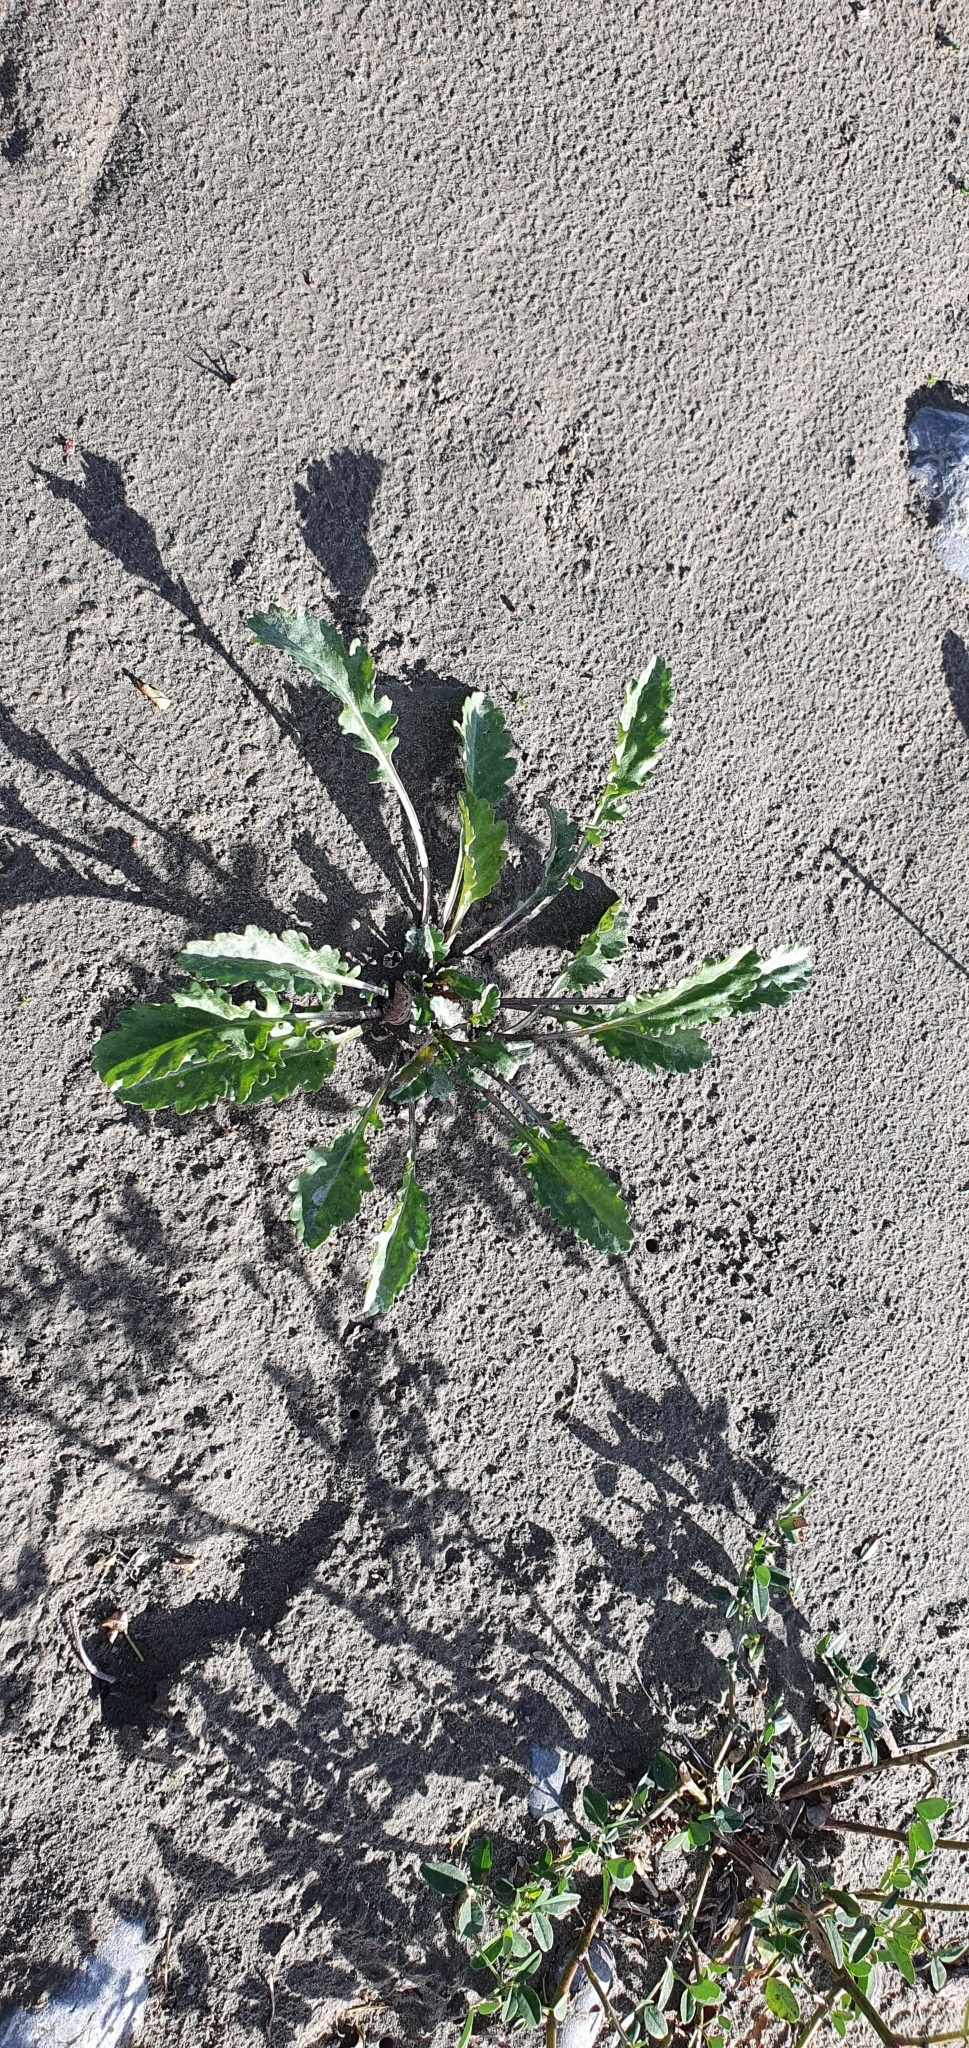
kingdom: Plantae
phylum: Tracheophyta
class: Magnoliopsida
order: Asterales
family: Asteraceae
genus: Leucanthemum
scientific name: Leucanthemum vulgare
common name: Oxeye daisy
